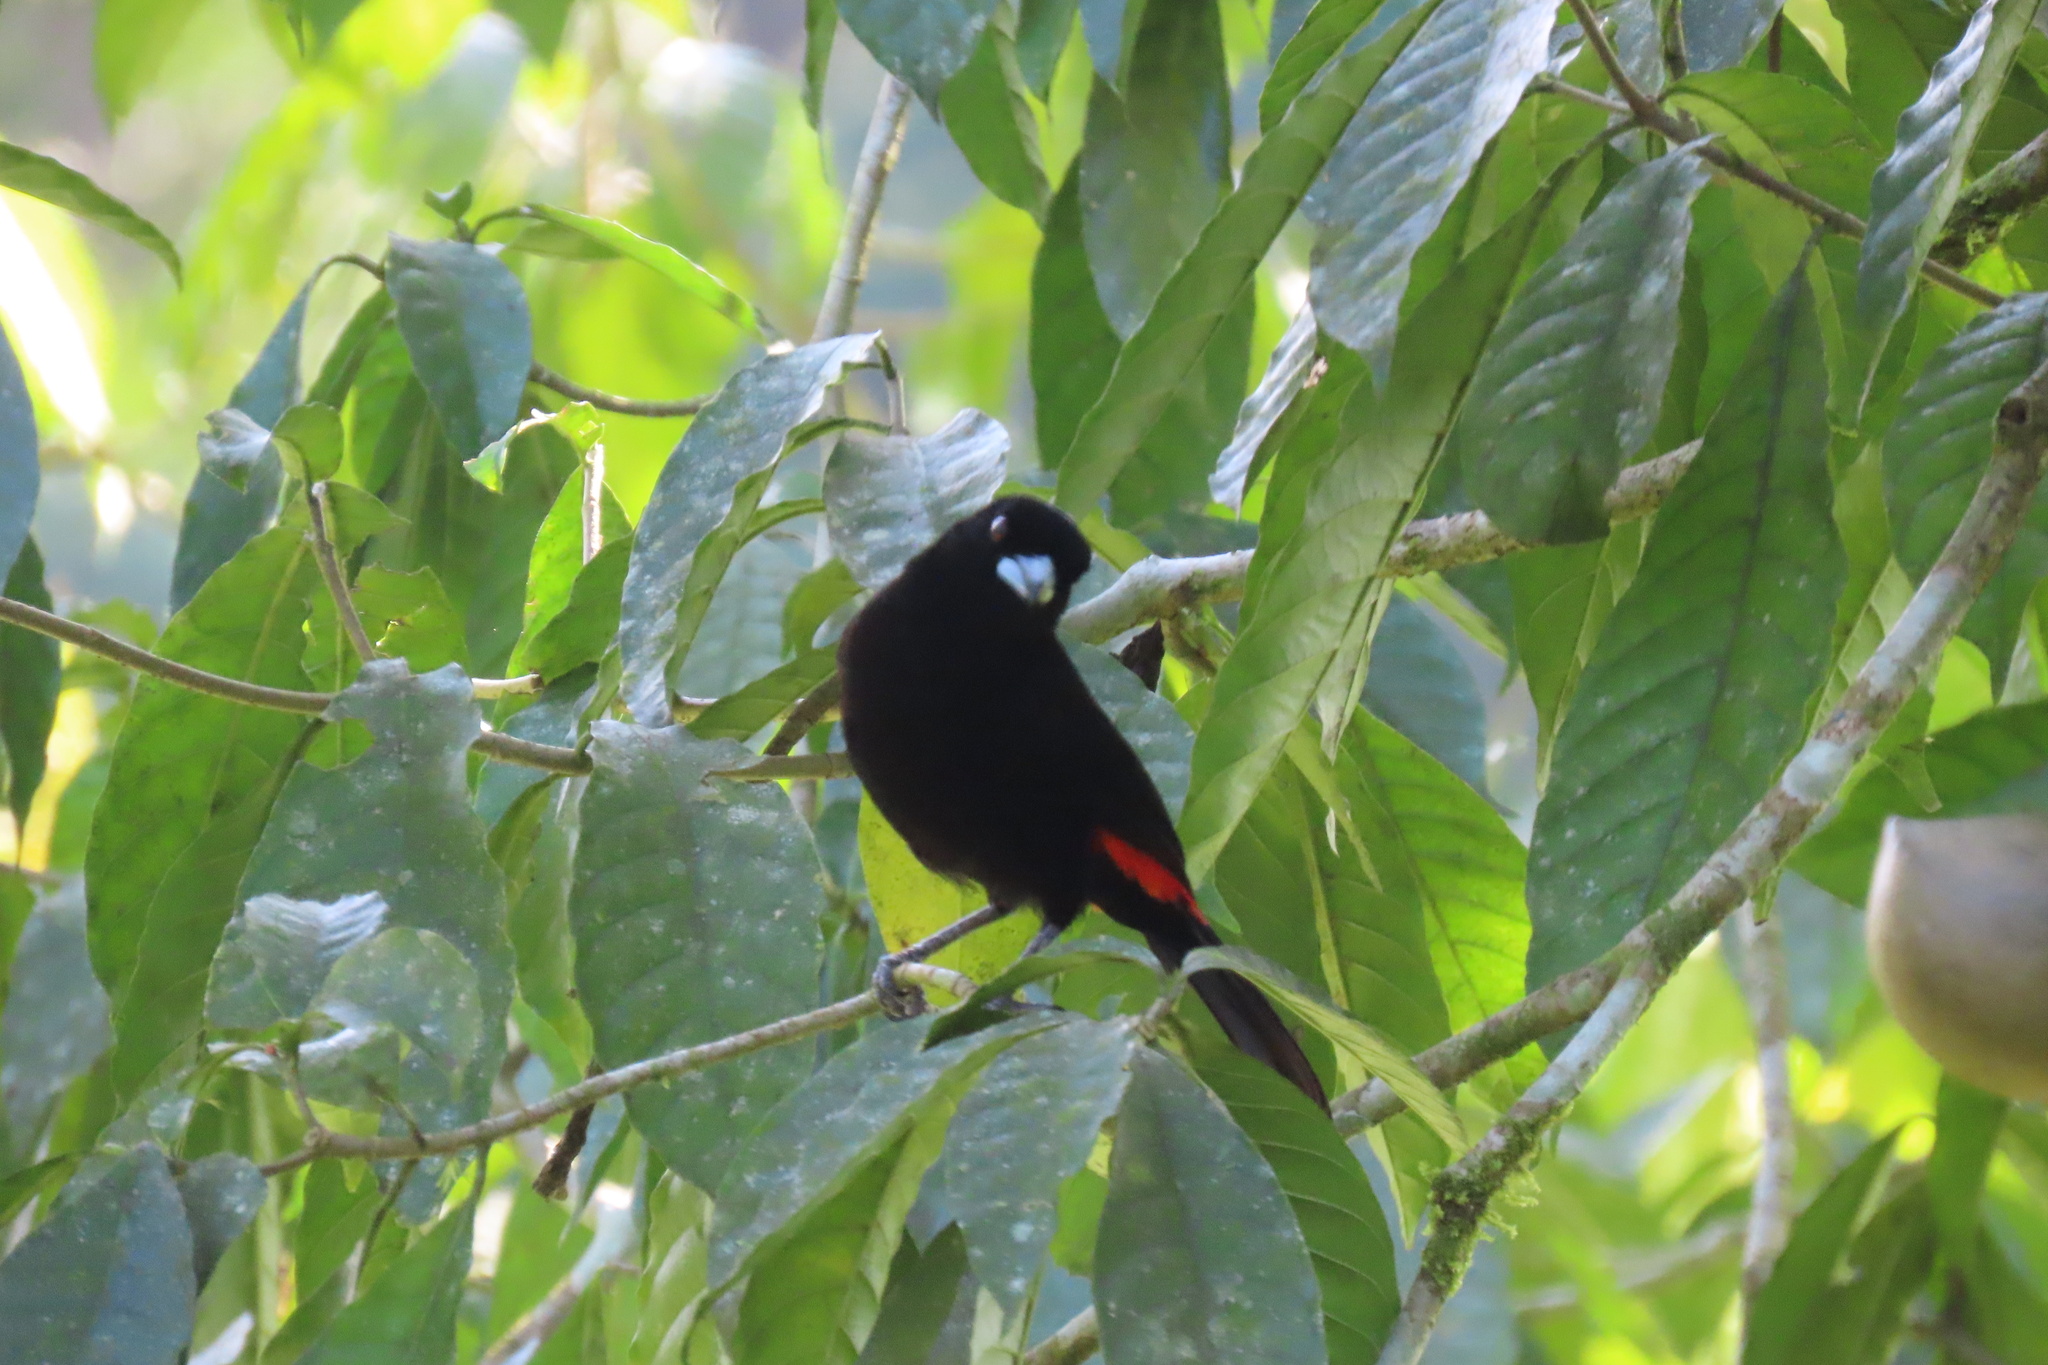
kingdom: Animalia
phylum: Chordata
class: Aves
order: Passeriformes
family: Thraupidae
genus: Ramphocelus
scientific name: Ramphocelus passerinii
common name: Passerini's tanager
